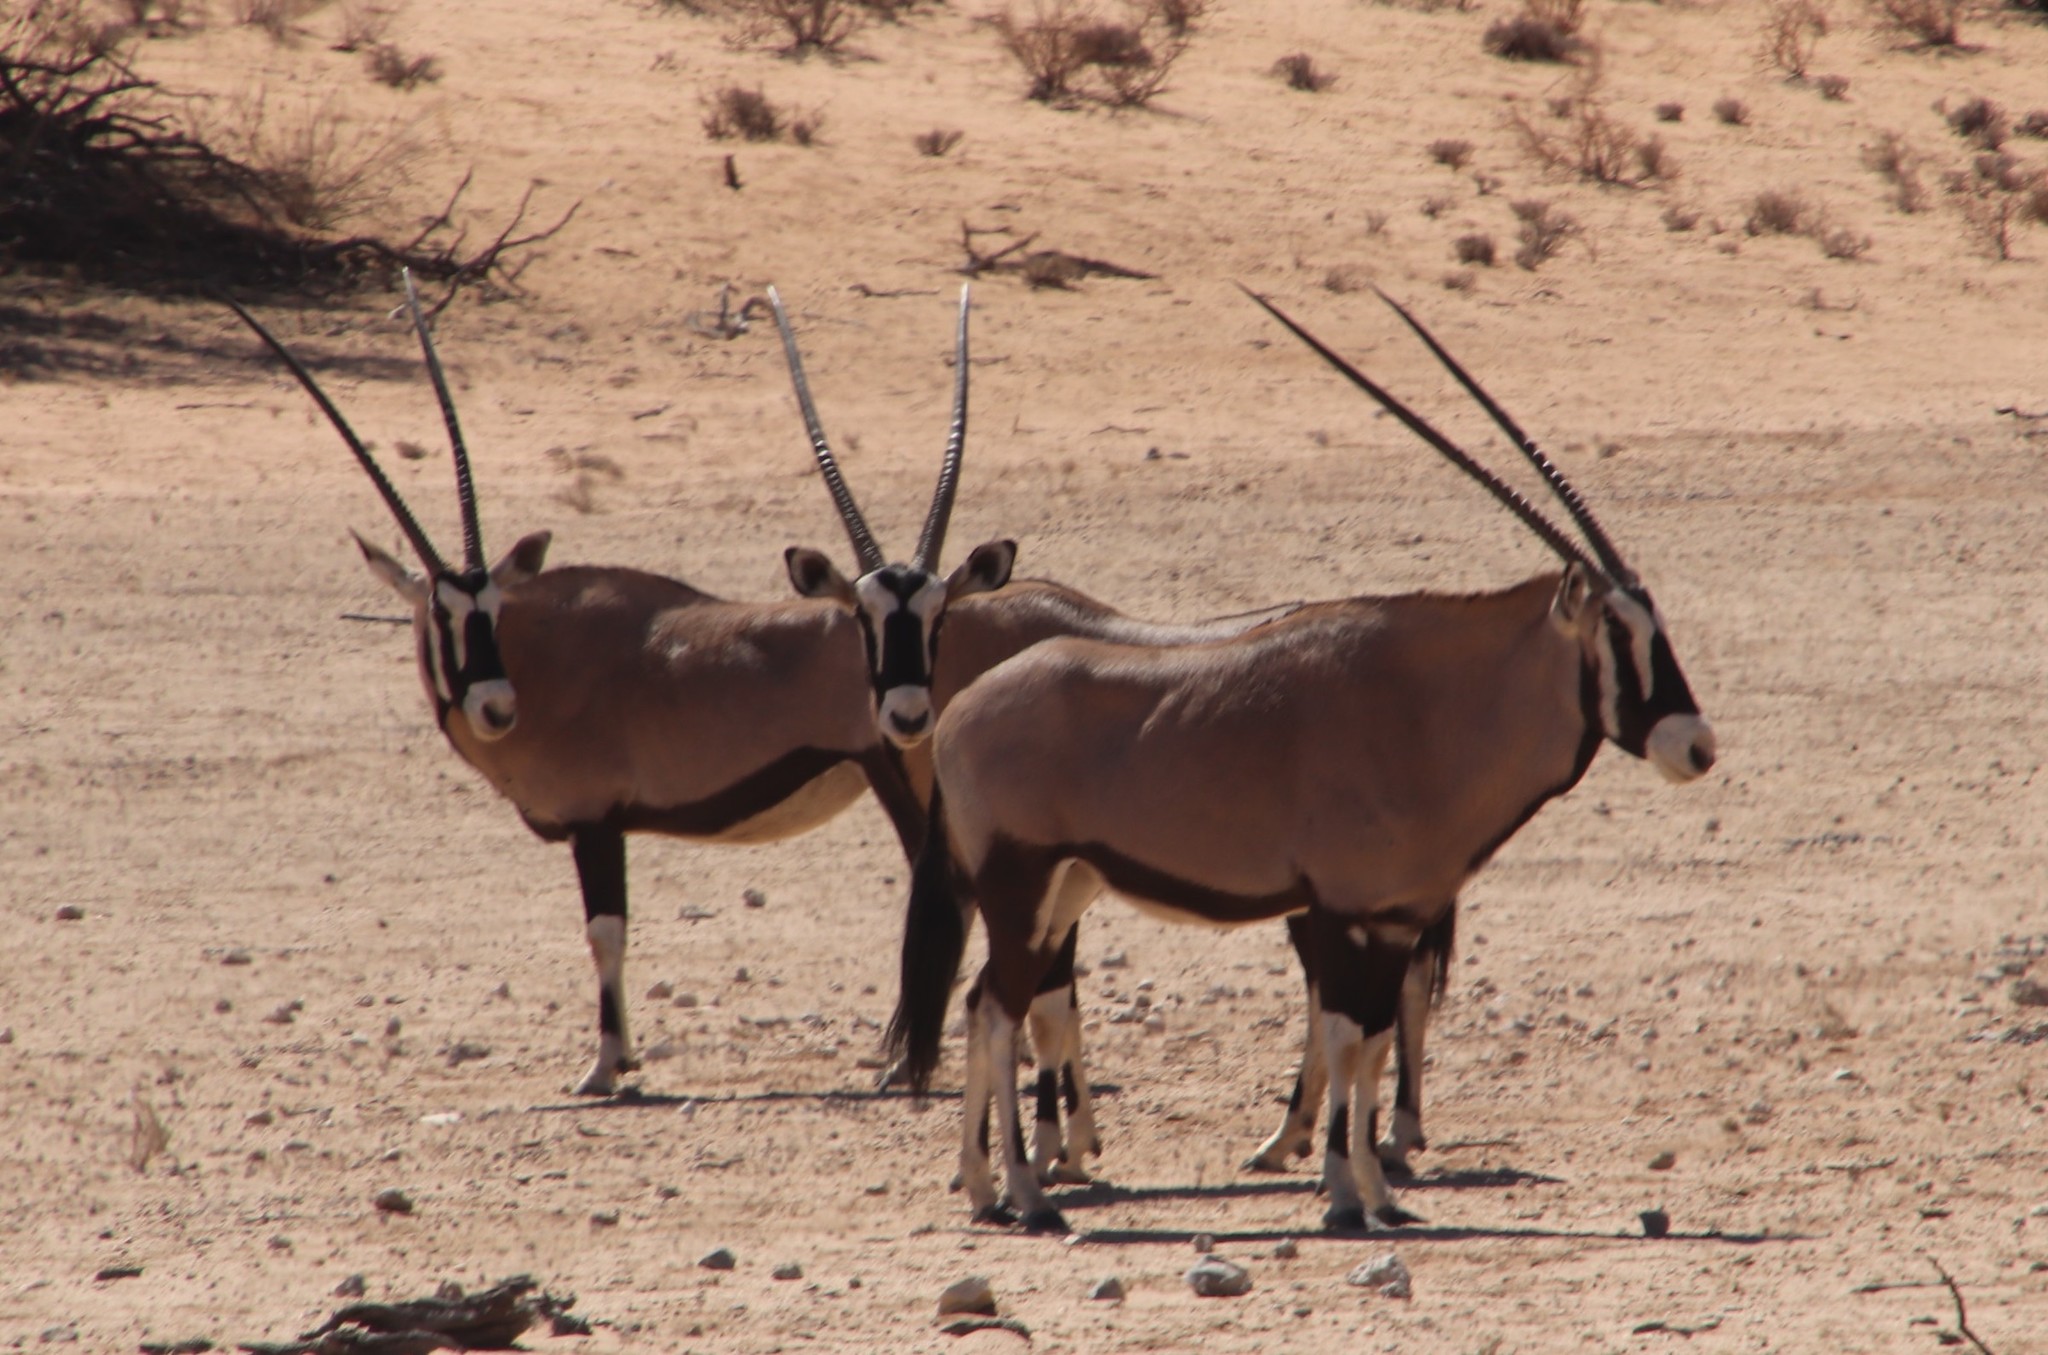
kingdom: Animalia
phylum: Chordata
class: Mammalia
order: Artiodactyla
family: Bovidae
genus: Oryx
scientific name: Oryx gazella
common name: Gemsbok
